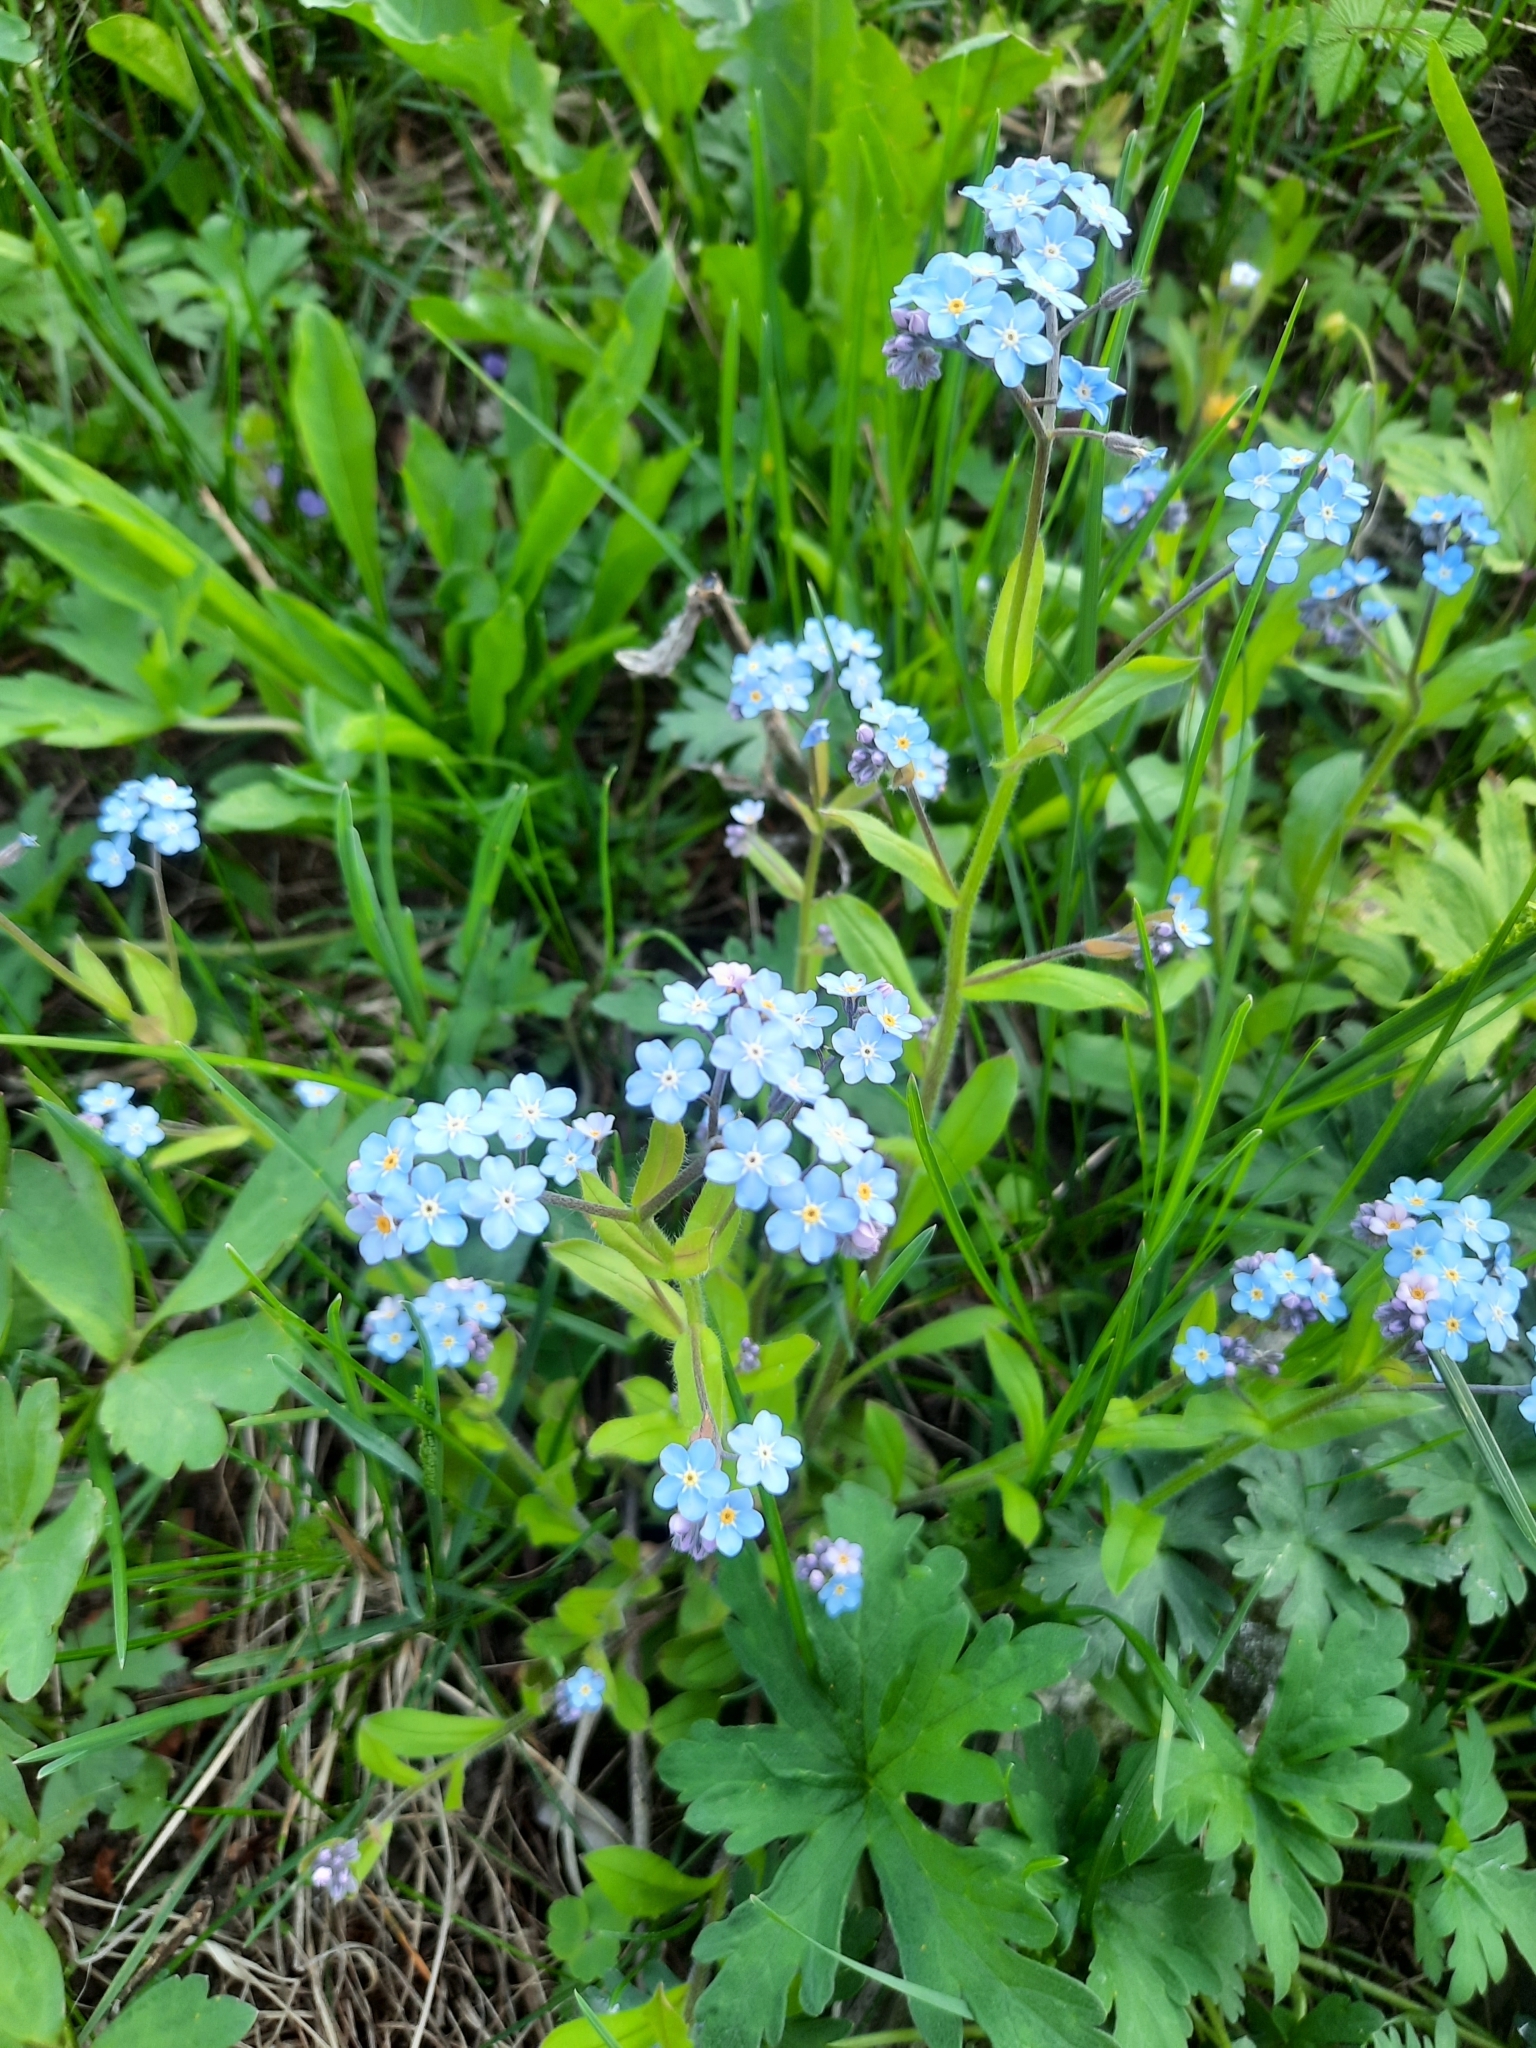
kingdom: Plantae
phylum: Tracheophyta
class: Magnoliopsida
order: Boraginales
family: Boraginaceae
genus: Myosotis
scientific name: Myosotis sylvatica
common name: Wood forget-me-not
